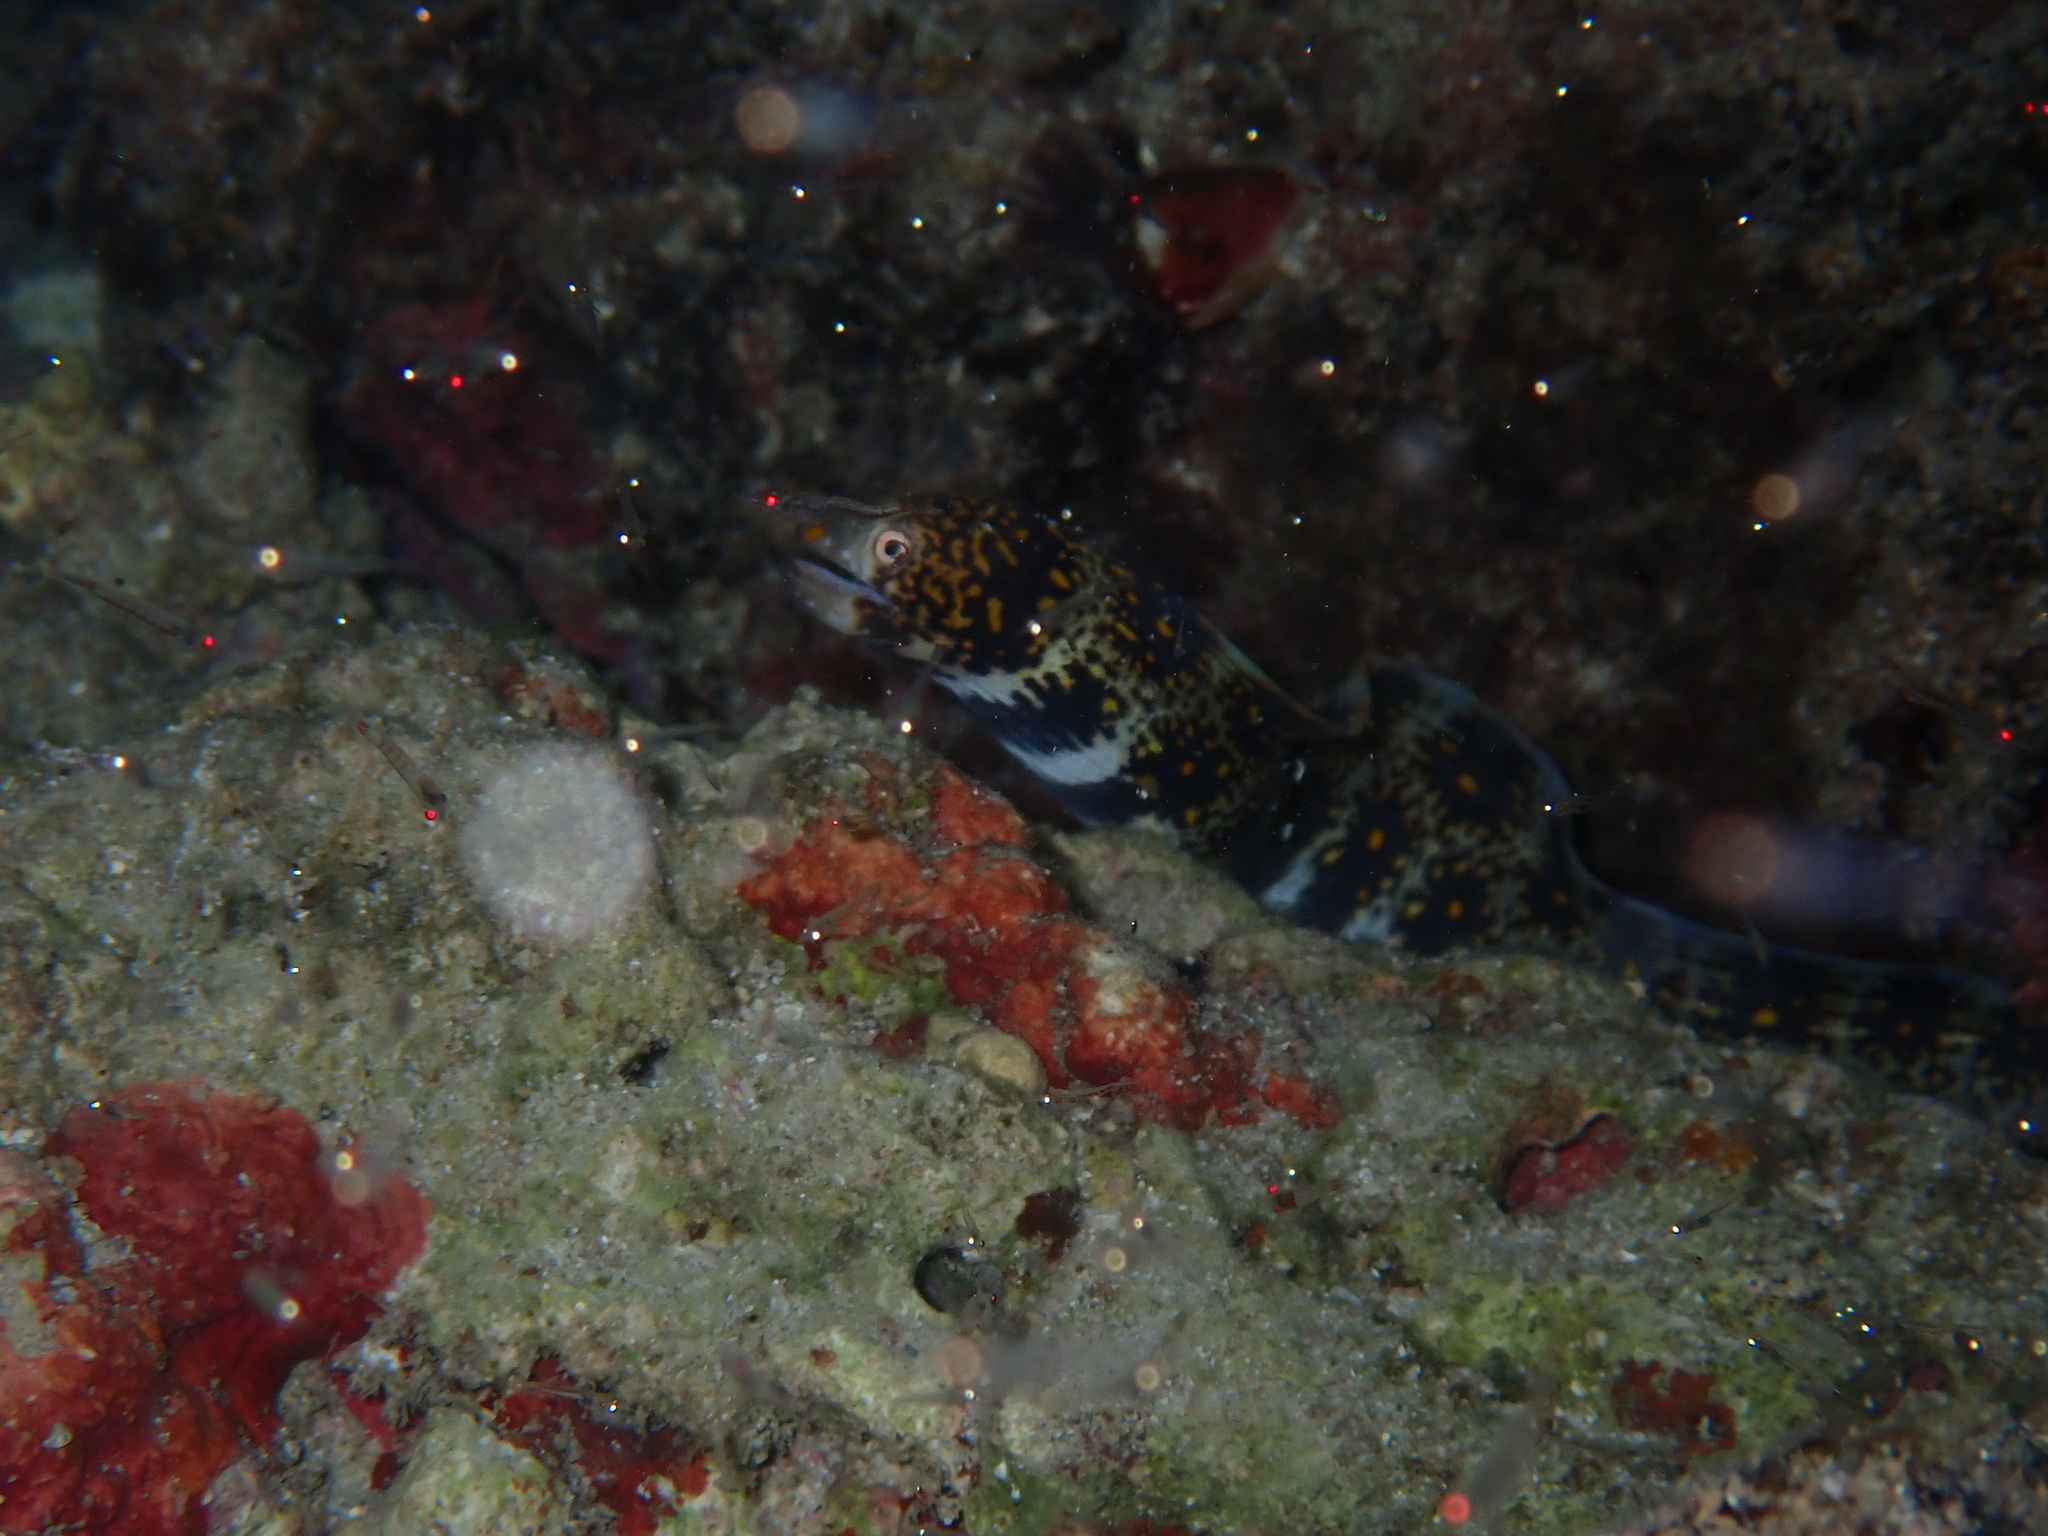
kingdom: Animalia
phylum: Chordata
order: Anguilliformes
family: Muraenidae
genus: Echidna
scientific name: Echidna nebulosa
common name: Snowflake moray
